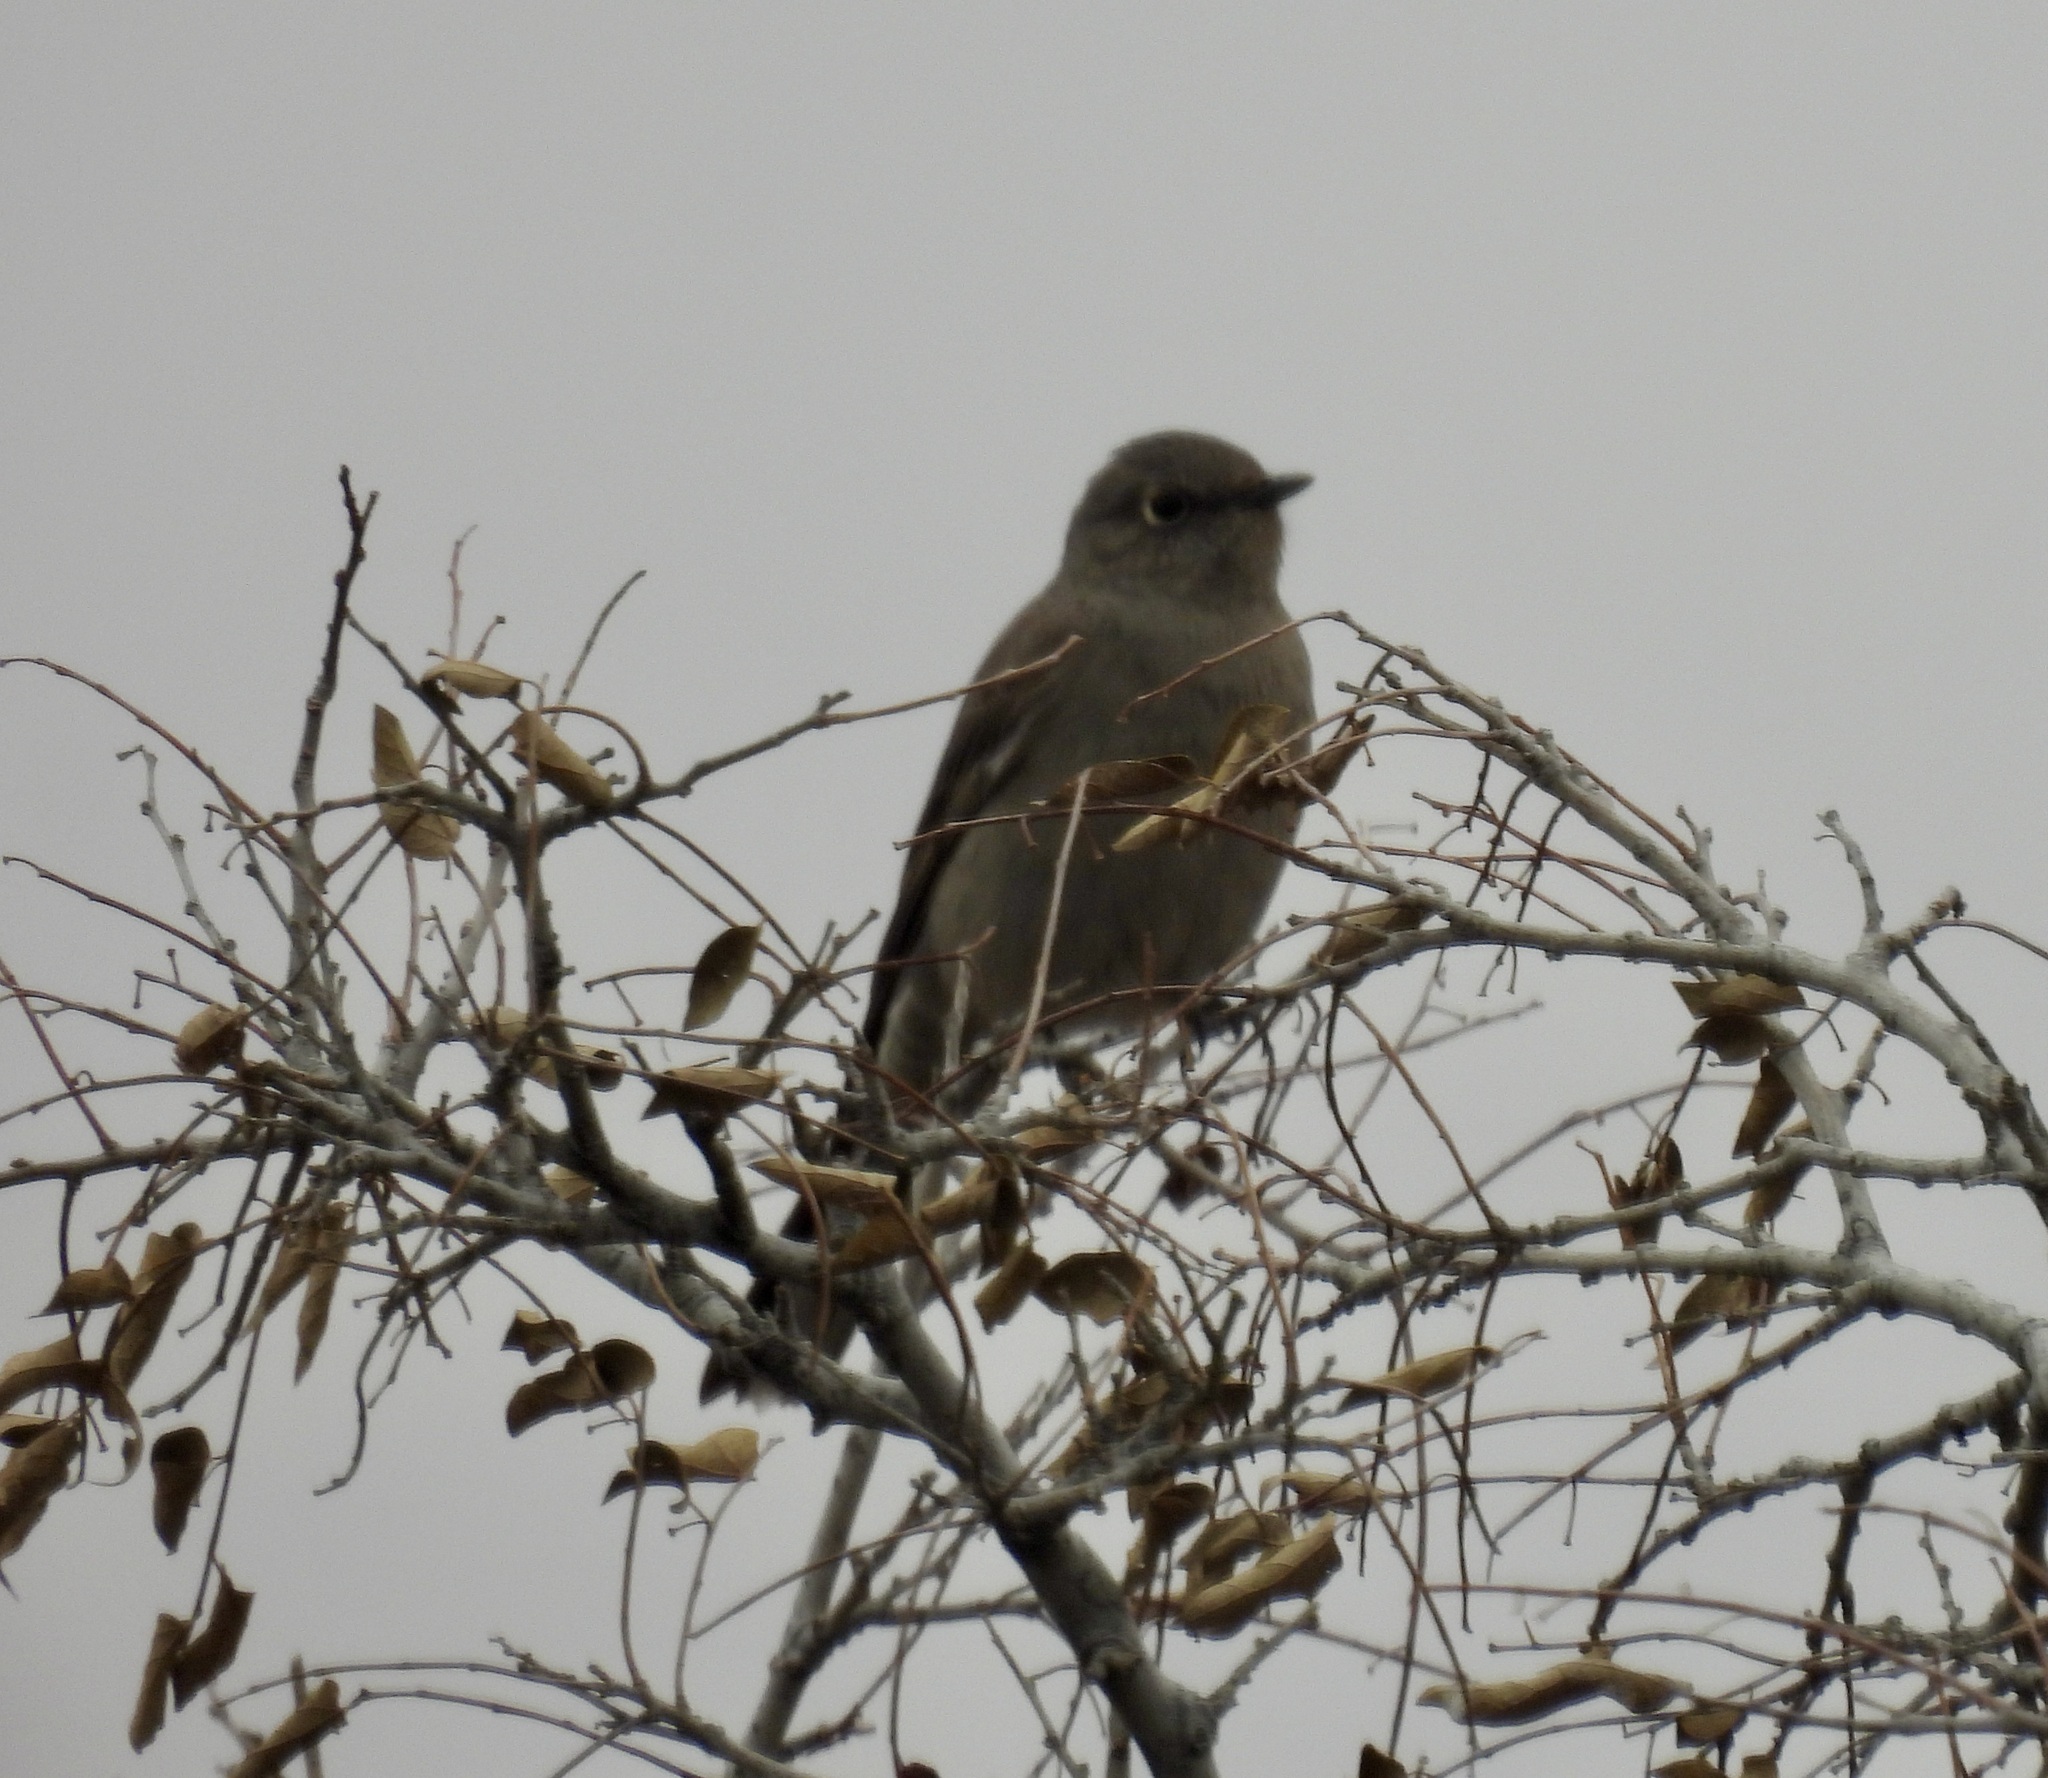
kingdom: Animalia
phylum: Chordata
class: Aves
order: Passeriformes
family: Turdidae
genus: Myadestes
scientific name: Myadestes townsendi
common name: Townsend's solitaire
